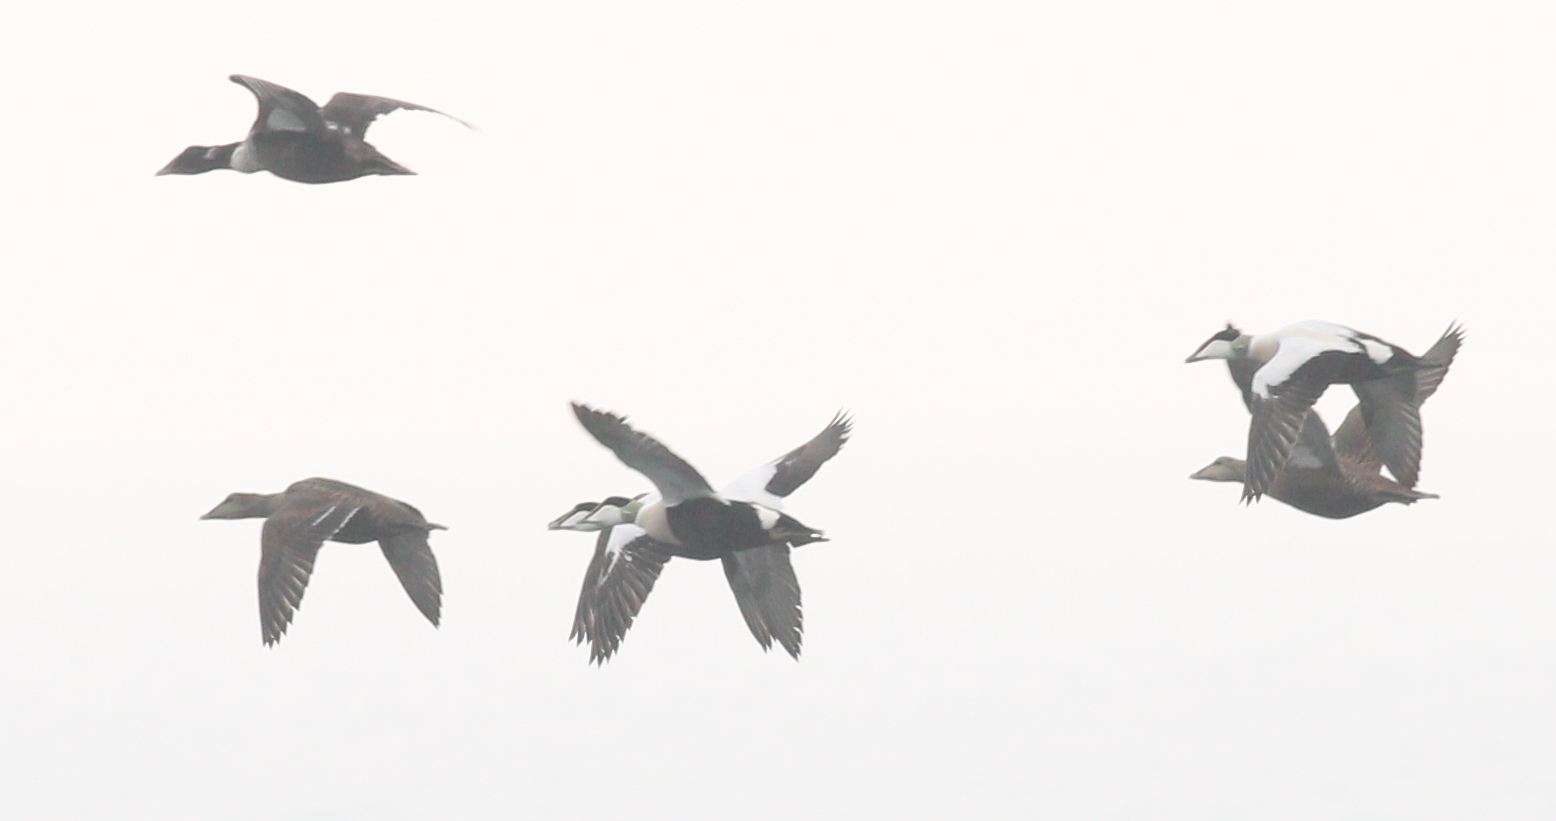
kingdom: Animalia
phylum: Chordata
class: Aves
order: Anseriformes
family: Anatidae
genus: Somateria
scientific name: Somateria mollissima
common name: Common eider
